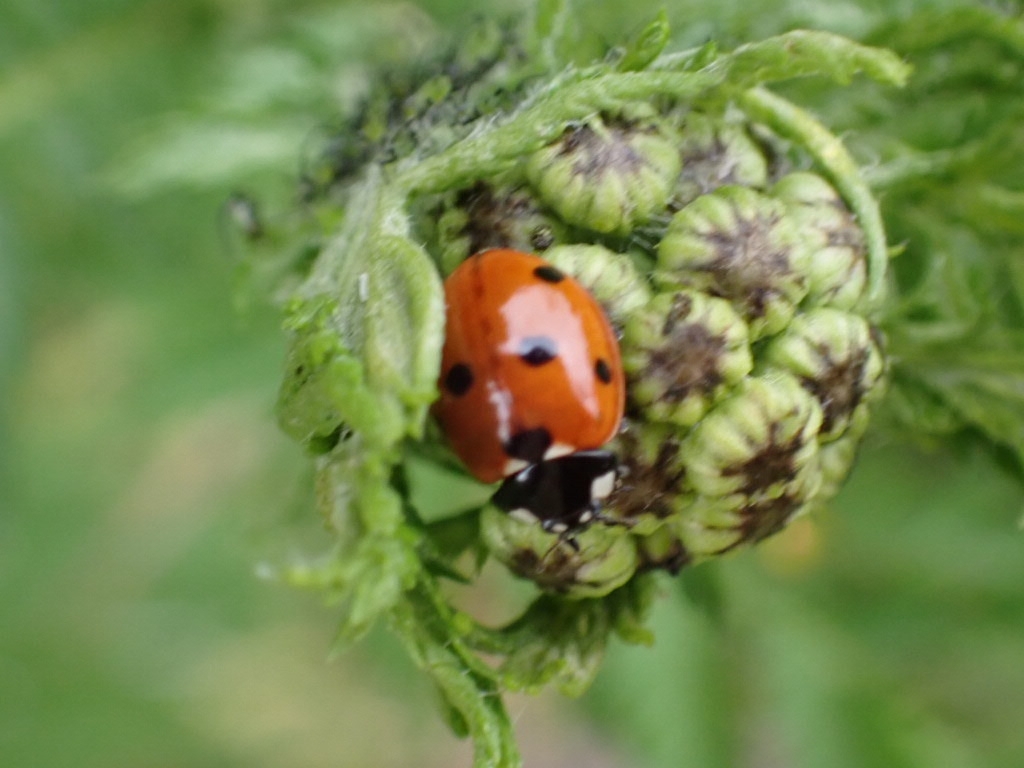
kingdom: Animalia
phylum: Arthropoda
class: Insecta
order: Coleoptera
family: Coccinellidae
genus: Coccinella
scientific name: Coccinella septempunctata
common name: Sevenspotted lady beetle
